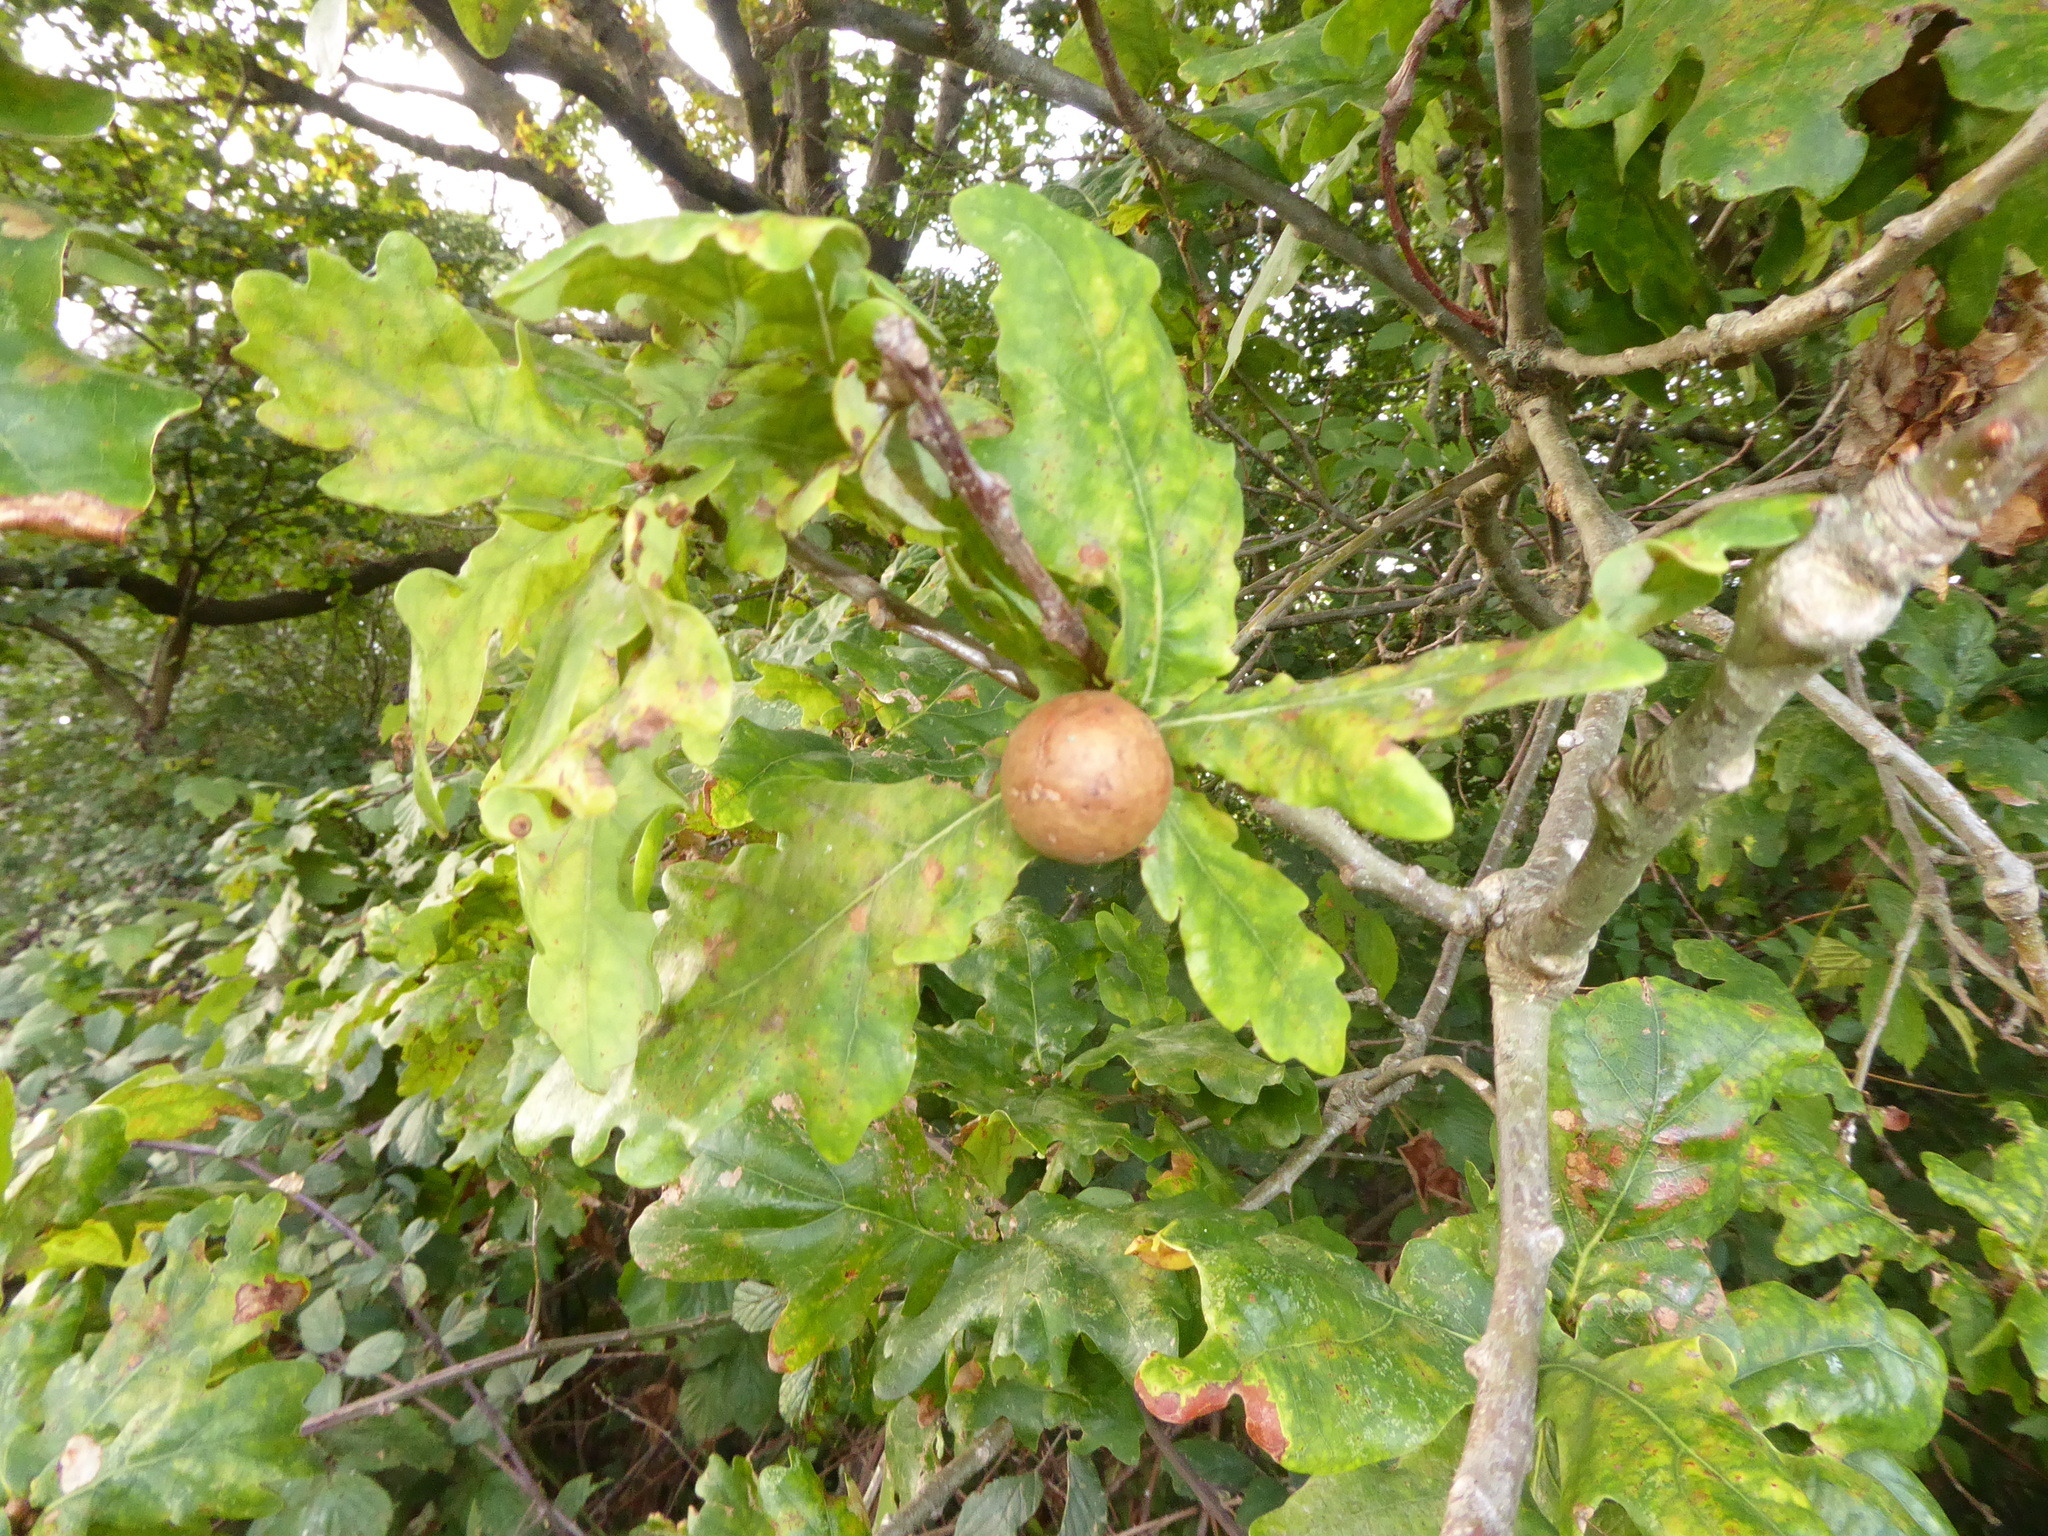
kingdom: Animalia
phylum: Arthropoda
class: Insecta
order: Hymenoptera
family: Cynipidae
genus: Andricus
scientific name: Andricus kollari
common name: Marble gall
